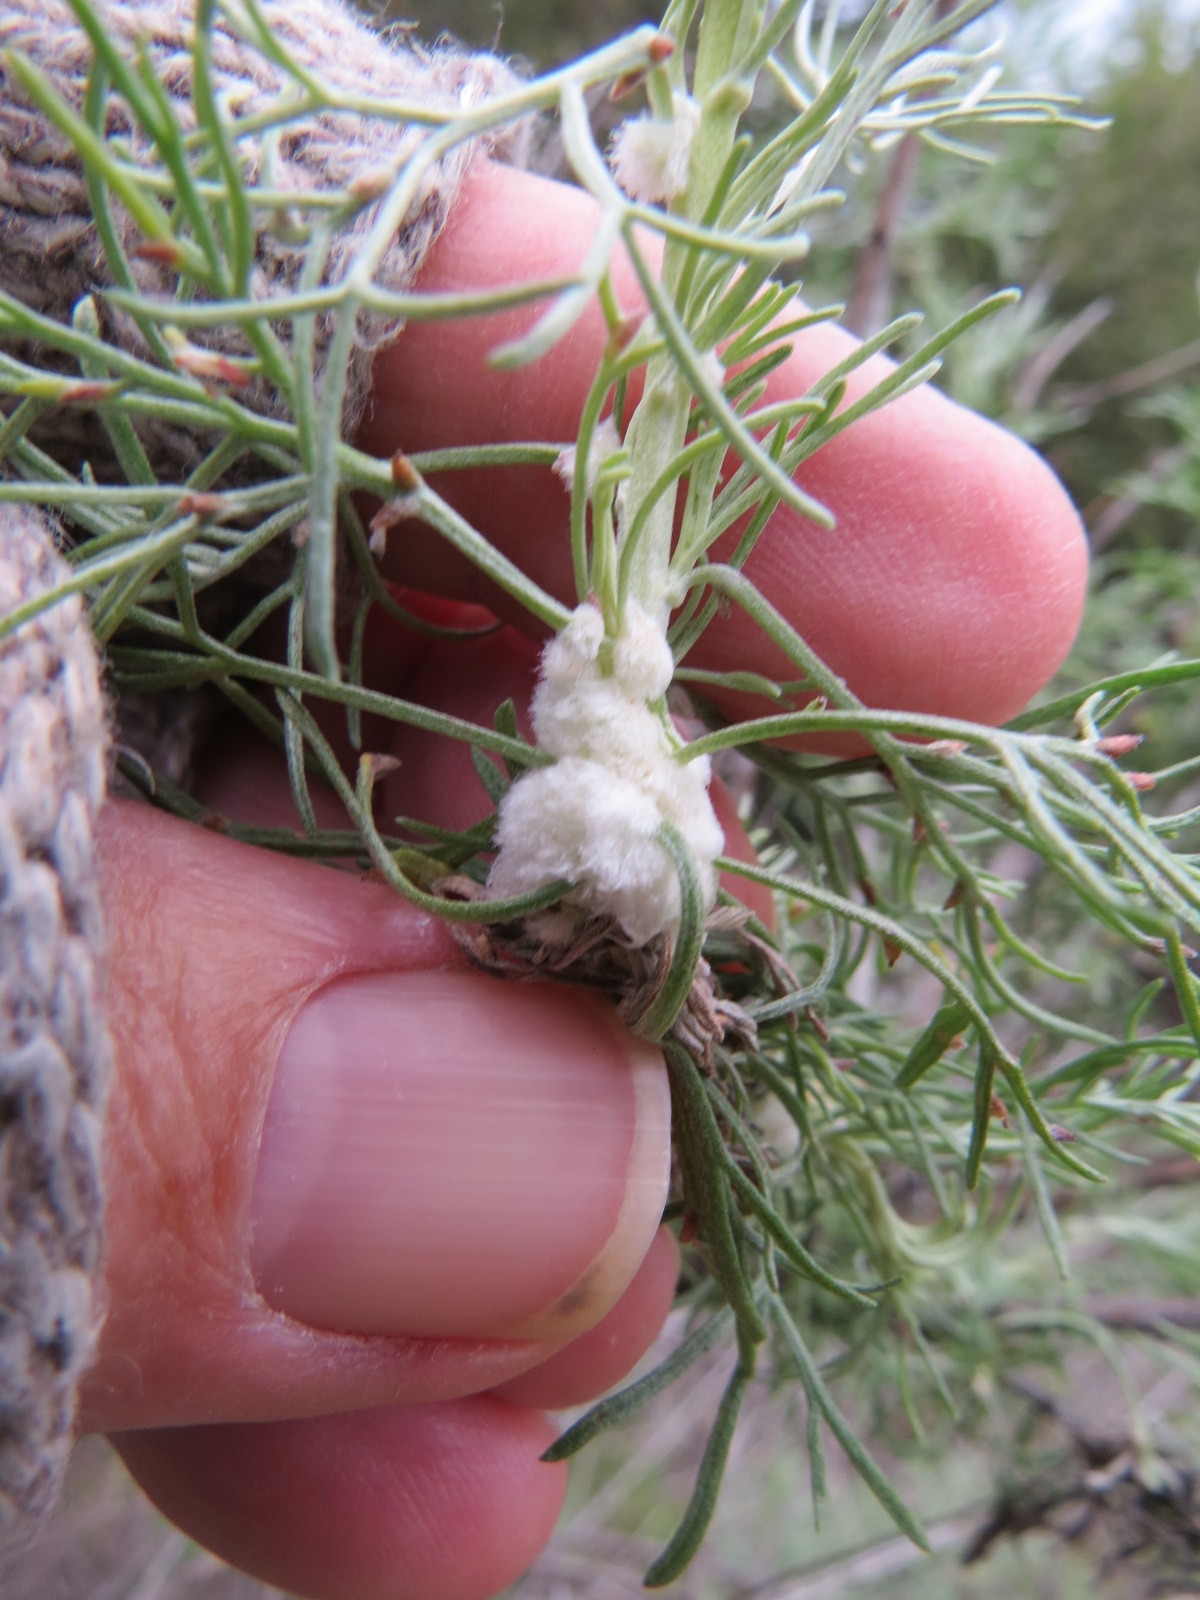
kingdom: Animalia
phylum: Arthropoda
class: Insecta
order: Diptera
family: Cecidomyiidae
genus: Rhopalomyia
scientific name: Rhopalomyia floccosa
